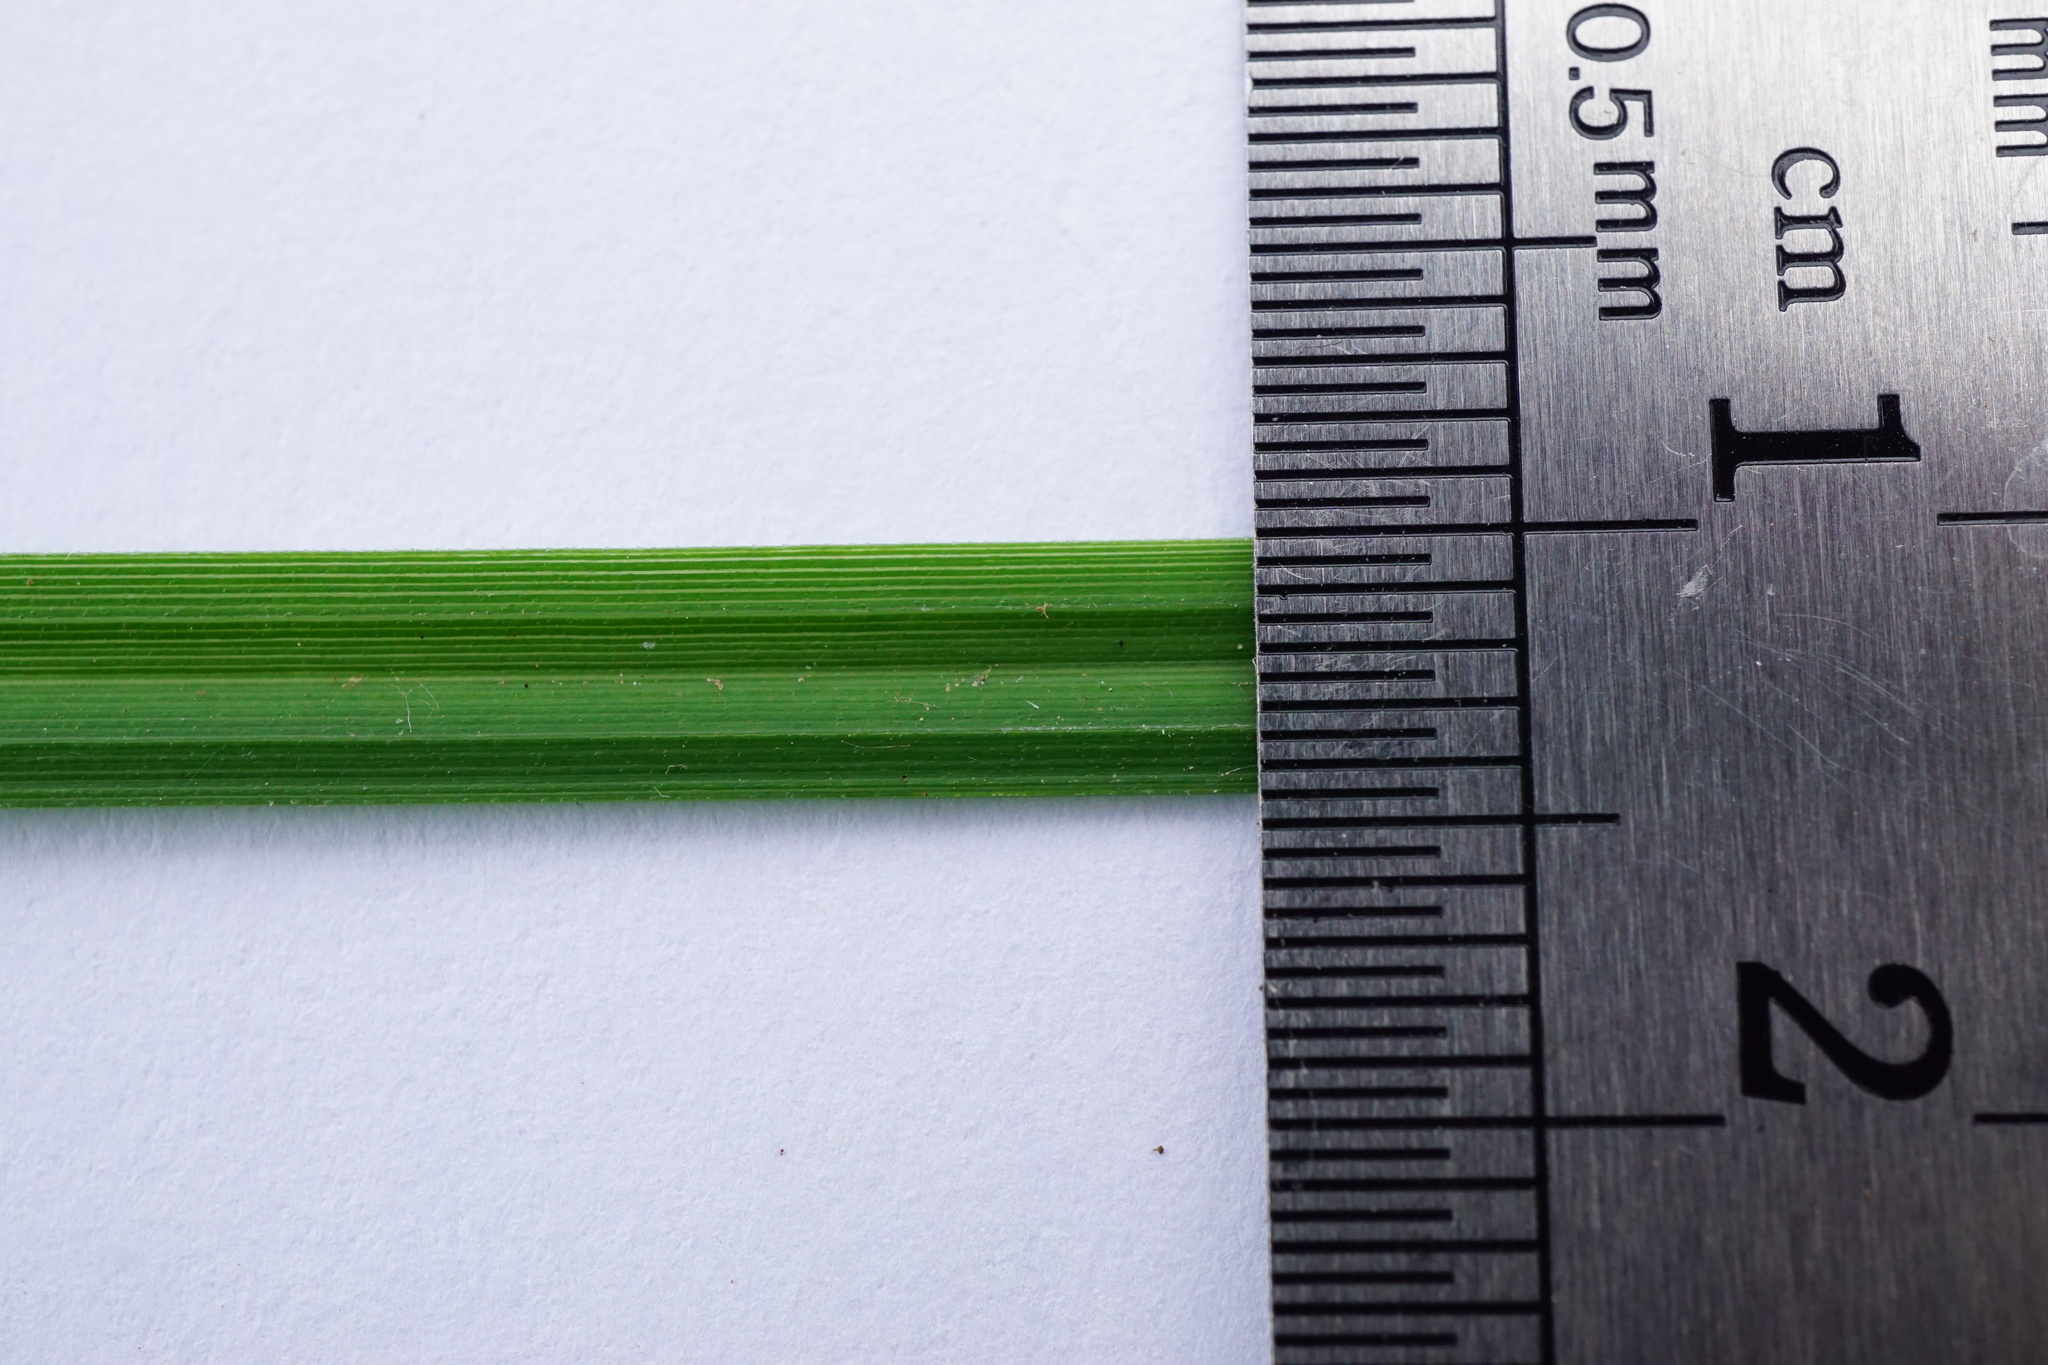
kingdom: Plantae
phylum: Tracheophyta
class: Liliopsida
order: Poales
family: Cyperaceae
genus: Carex
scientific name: Carex flacca
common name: Glaucous sedge
